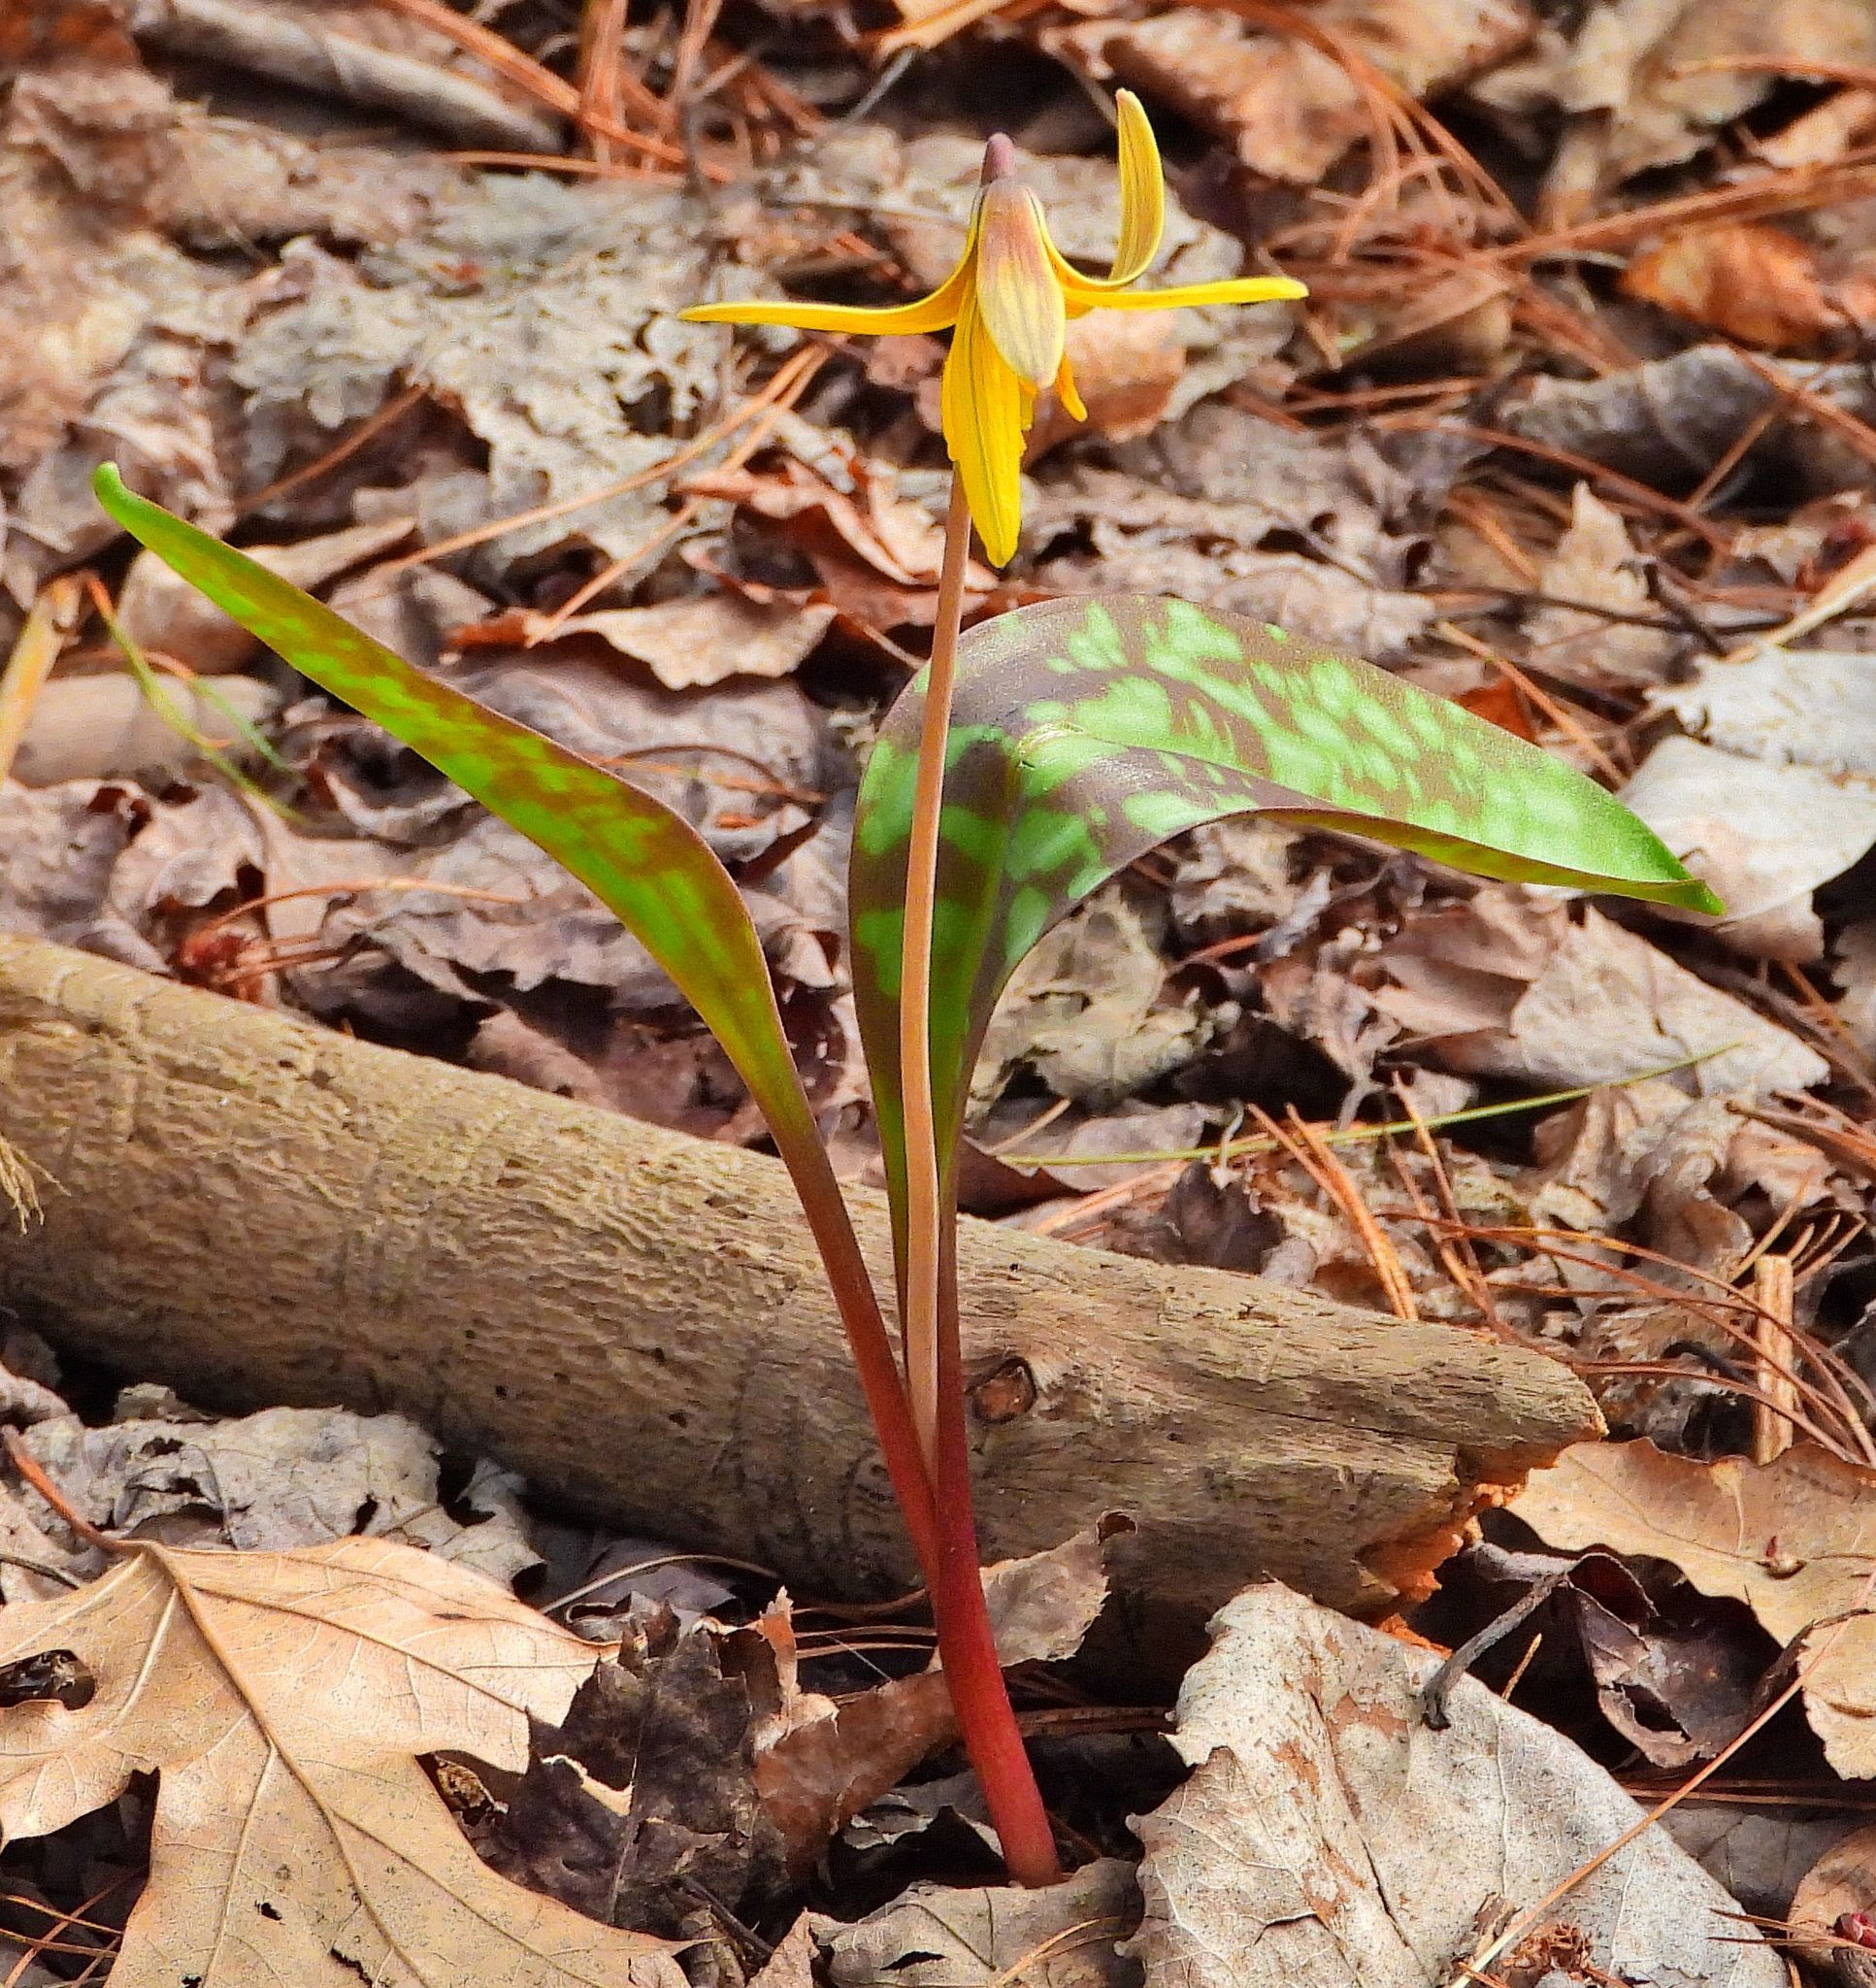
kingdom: Plantae
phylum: Tracheophyta
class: Liliopsida
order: Liliales
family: Liliaceae
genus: Erythronium
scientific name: Erythronium americanum
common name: Yellow adder's-tongue
